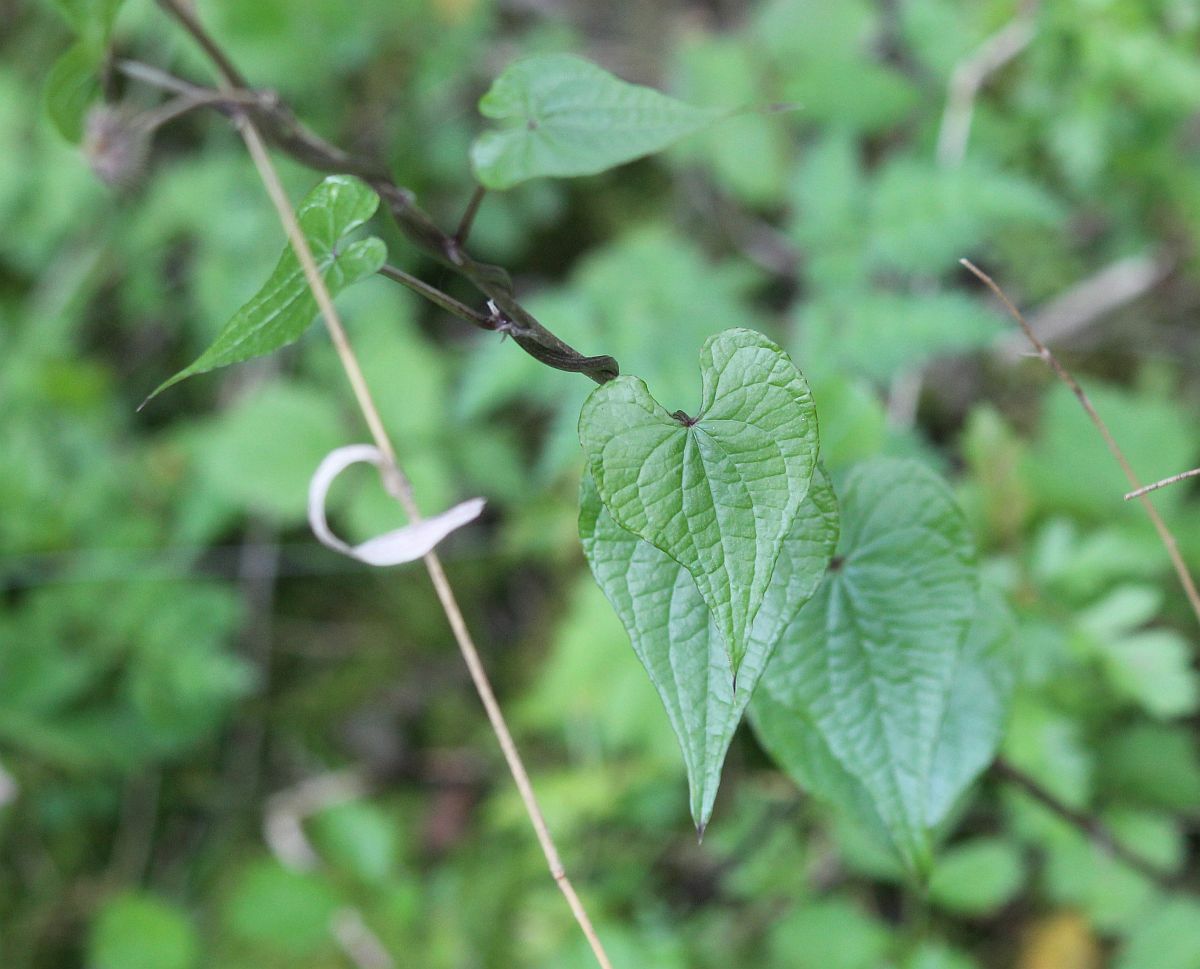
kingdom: Plantae
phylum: Tracheophyta
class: Liliopsida
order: Dioscoreales
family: Dioscoreaceae
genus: Dioscorea
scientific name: Dioscorea communis
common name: Black-bindweed
